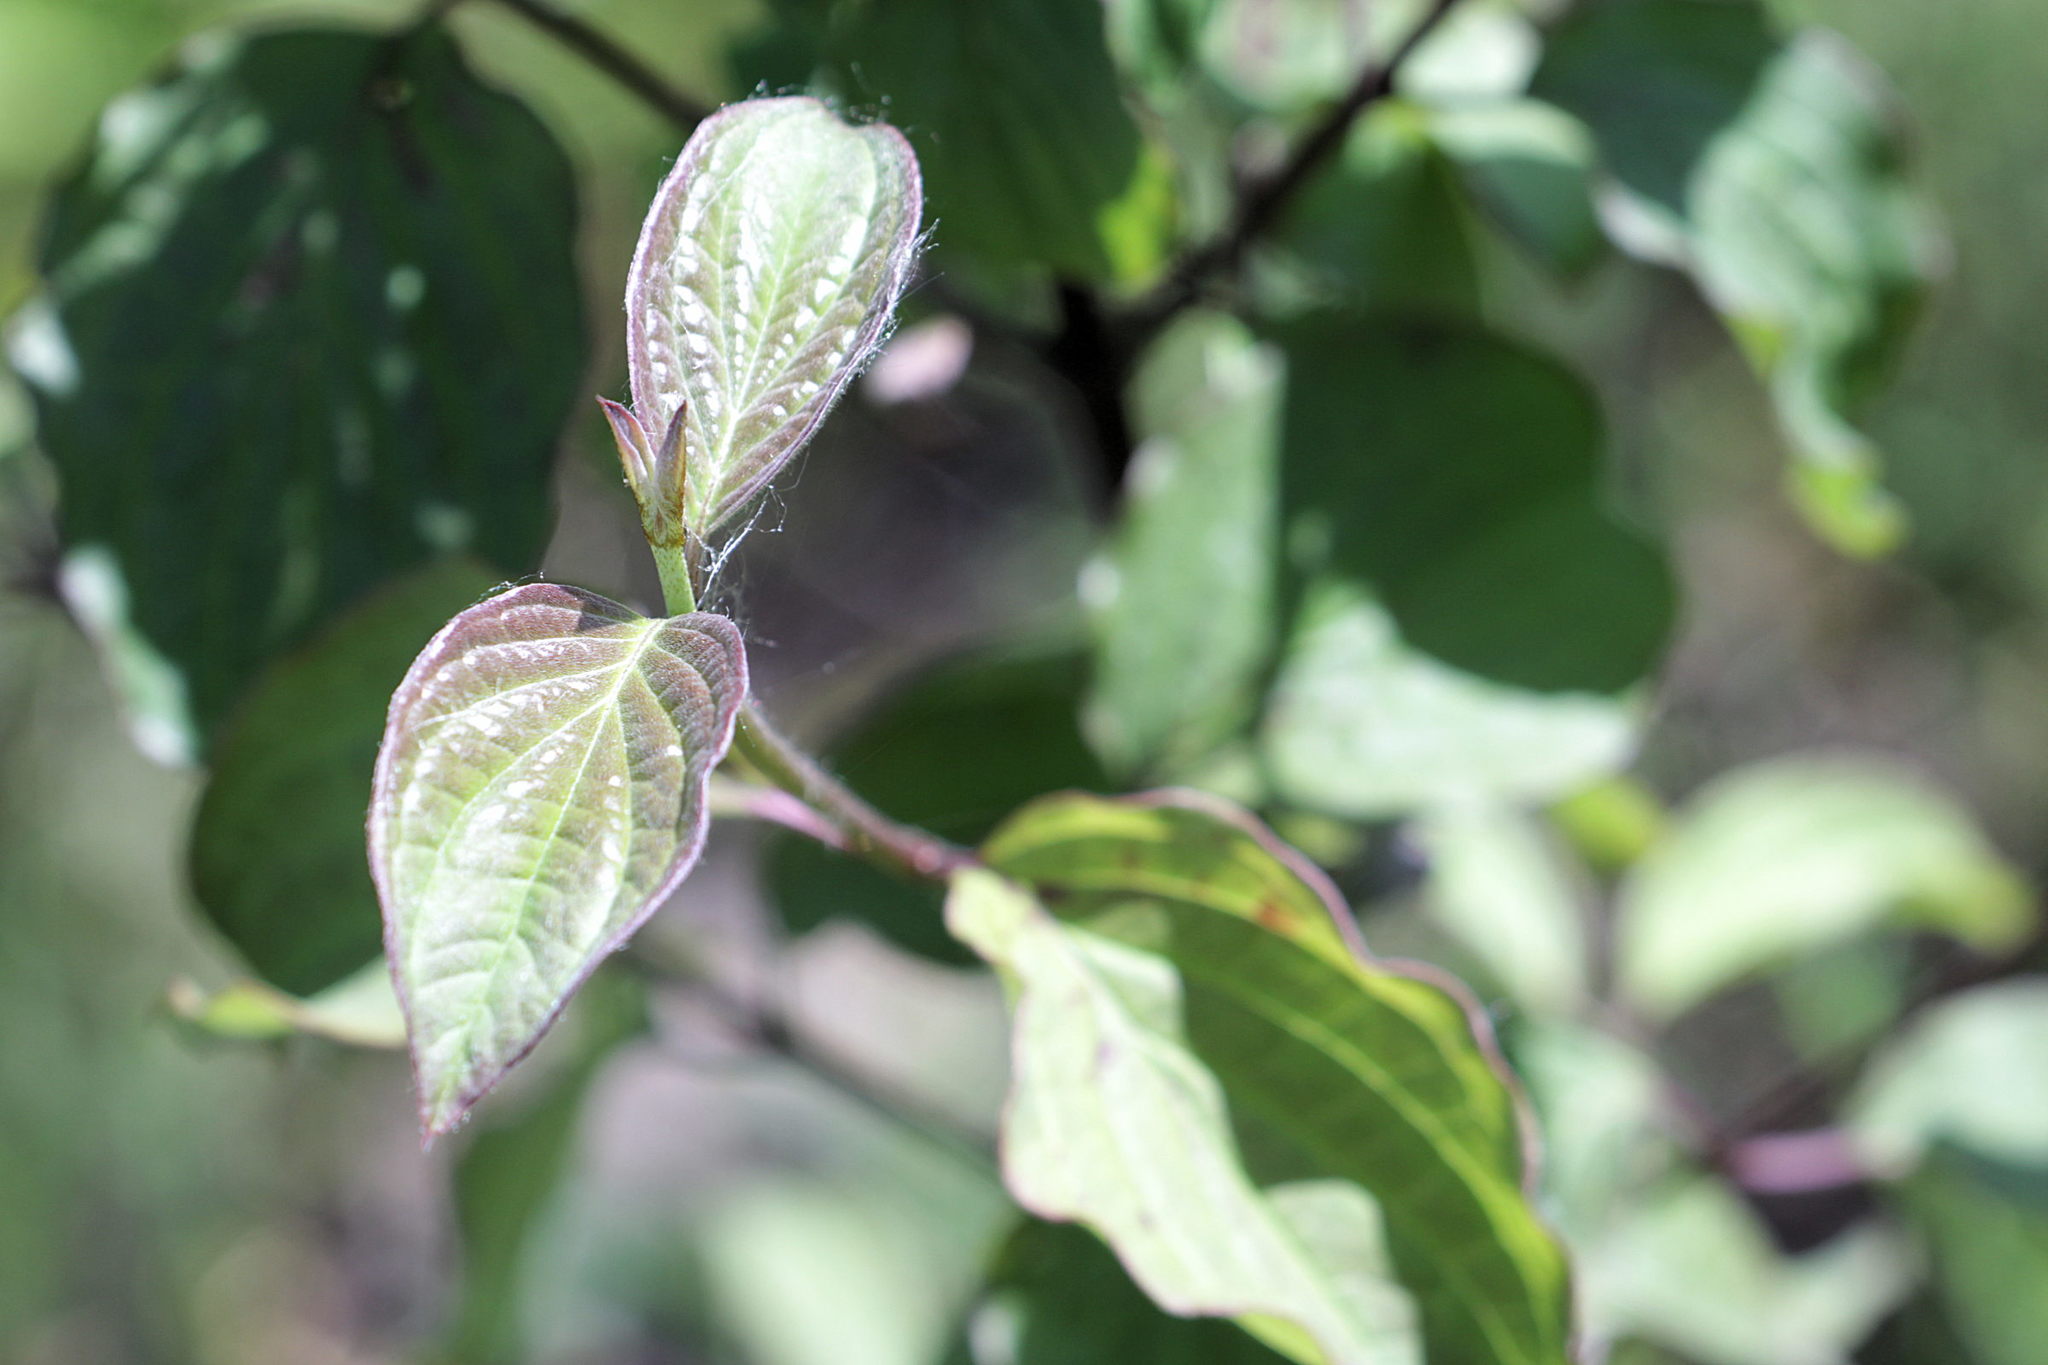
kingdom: Plantae
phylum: Tracheophyta
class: Magnoliopsida
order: Cornales
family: Cornaceae
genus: Cornus
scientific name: Cornus sanguinea
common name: Dogwood
